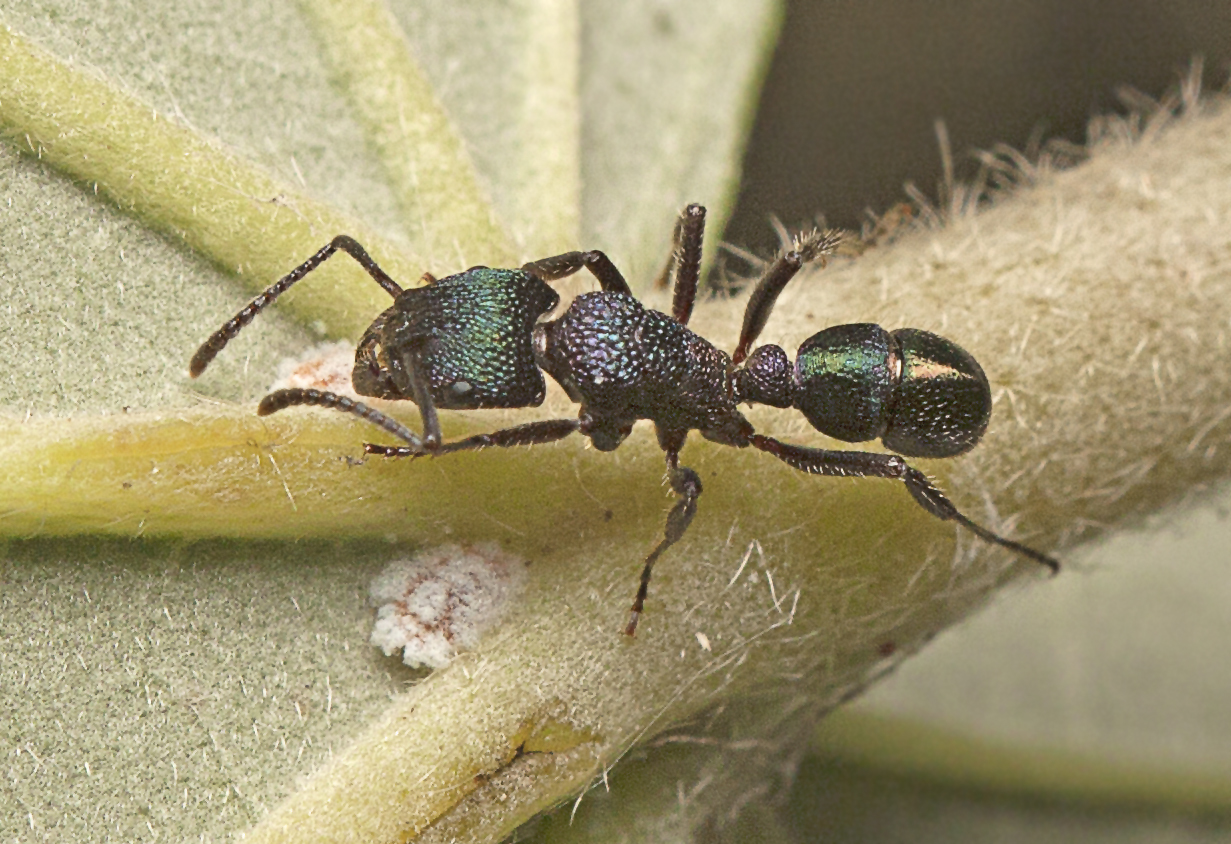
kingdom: Animalia
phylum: Arthropoda
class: Insecta
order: Hymenoptera
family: Formicidae
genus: Rhytidoponera
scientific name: Rhytidoponera metallica
